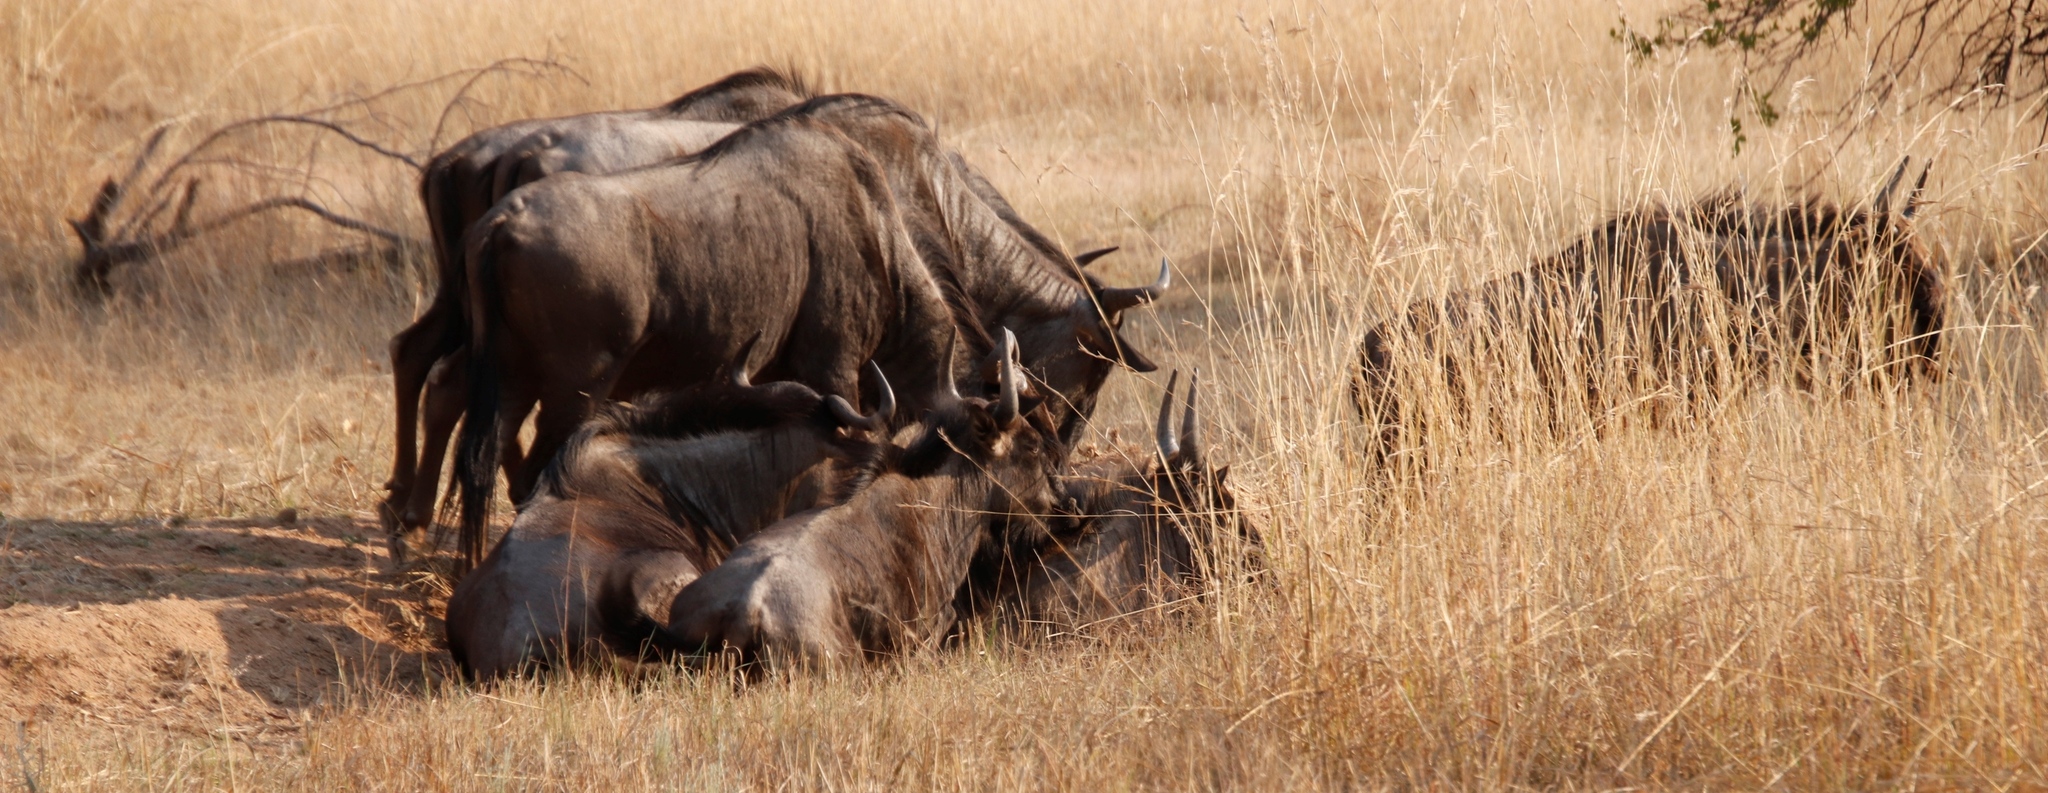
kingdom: Animalia
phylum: Chordata
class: Mammalia
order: Artiodactyla
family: Bovidae
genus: Connochaetes
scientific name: Connochaetes taurinus
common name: Blue wildebeest
